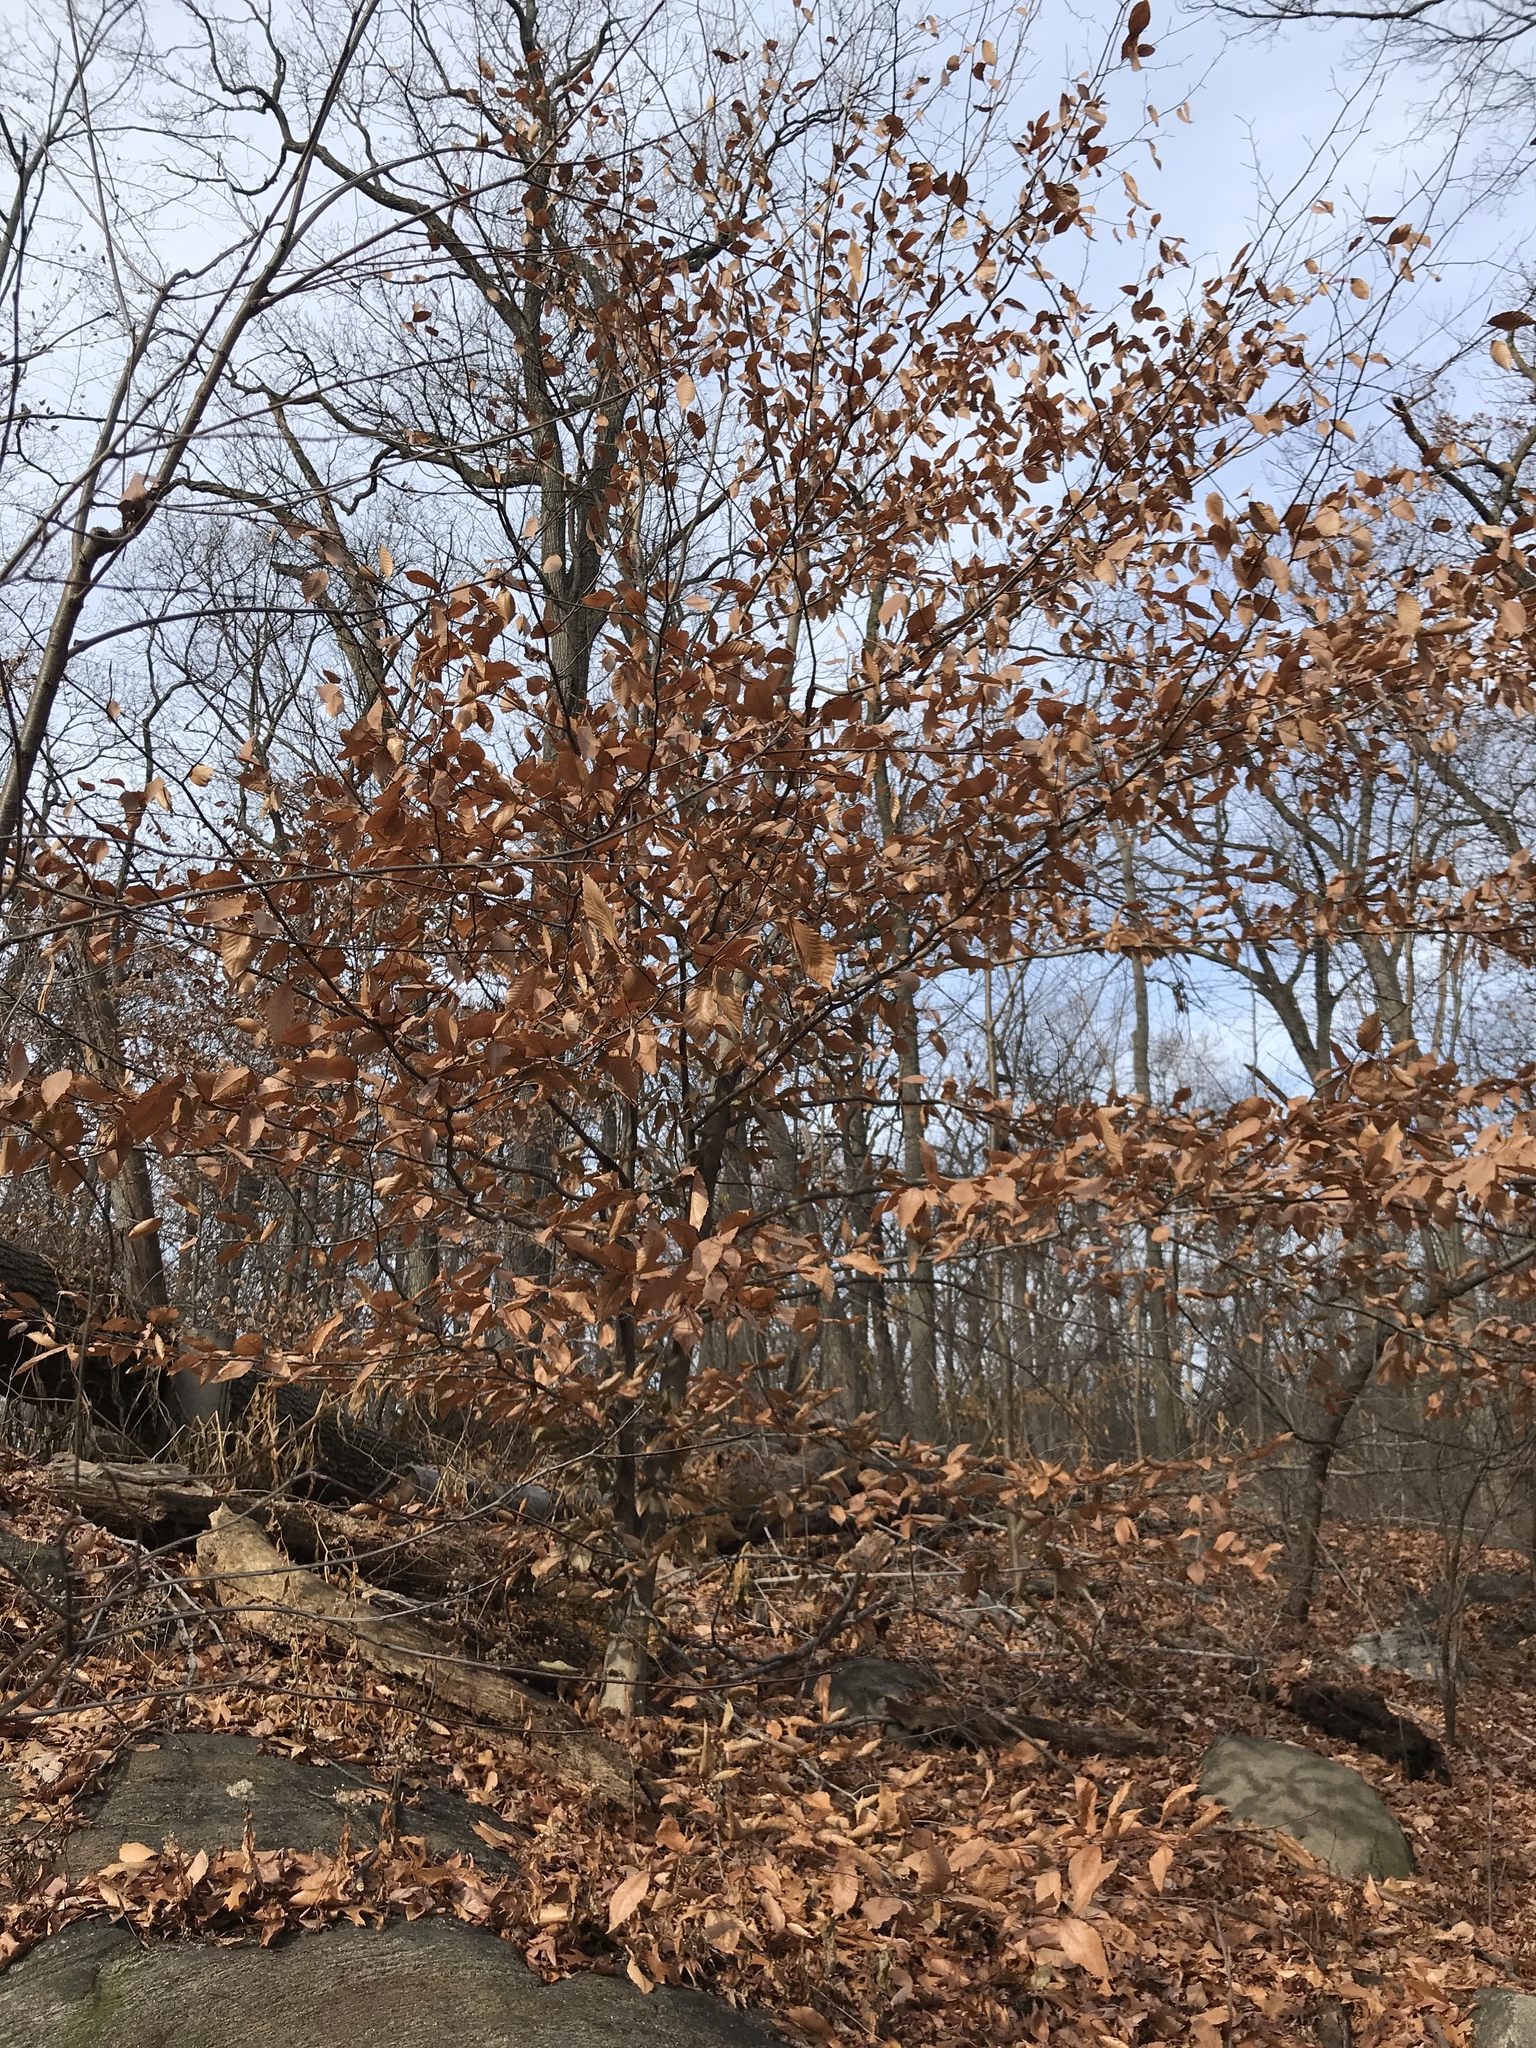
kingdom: Plantae
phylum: Tracheophyta
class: Magnoliopsida
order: Fagales
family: Fagaceae
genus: Fagus
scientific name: Fagus grandifolia
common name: American beech
